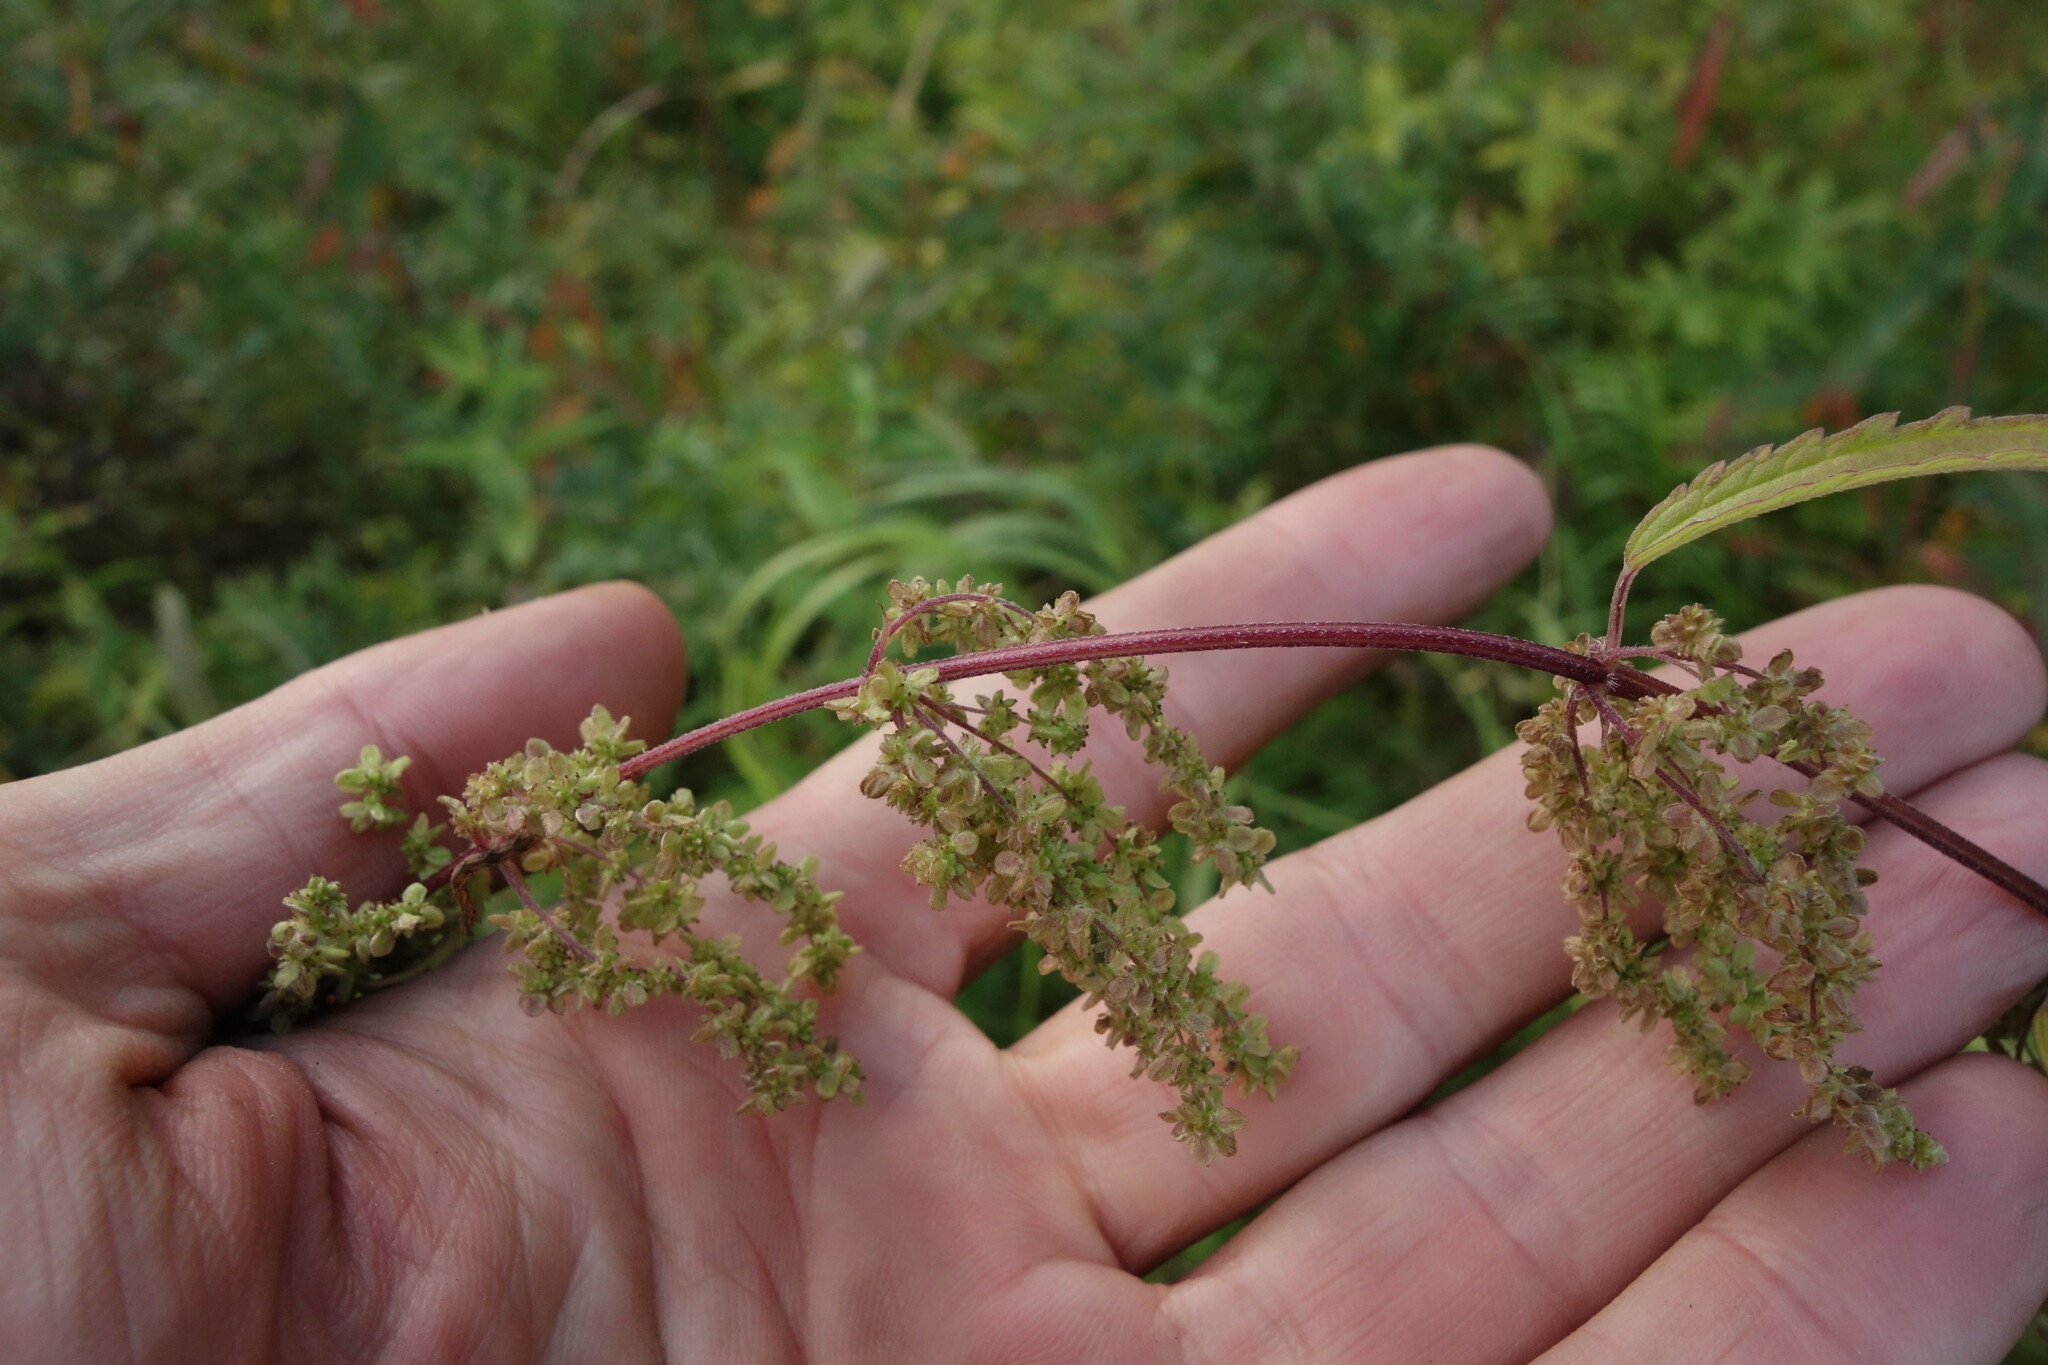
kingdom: Plantae
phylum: Tracheophyta
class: Magnoliopsida
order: Rosales
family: Urticaceae
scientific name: Urticaceae
